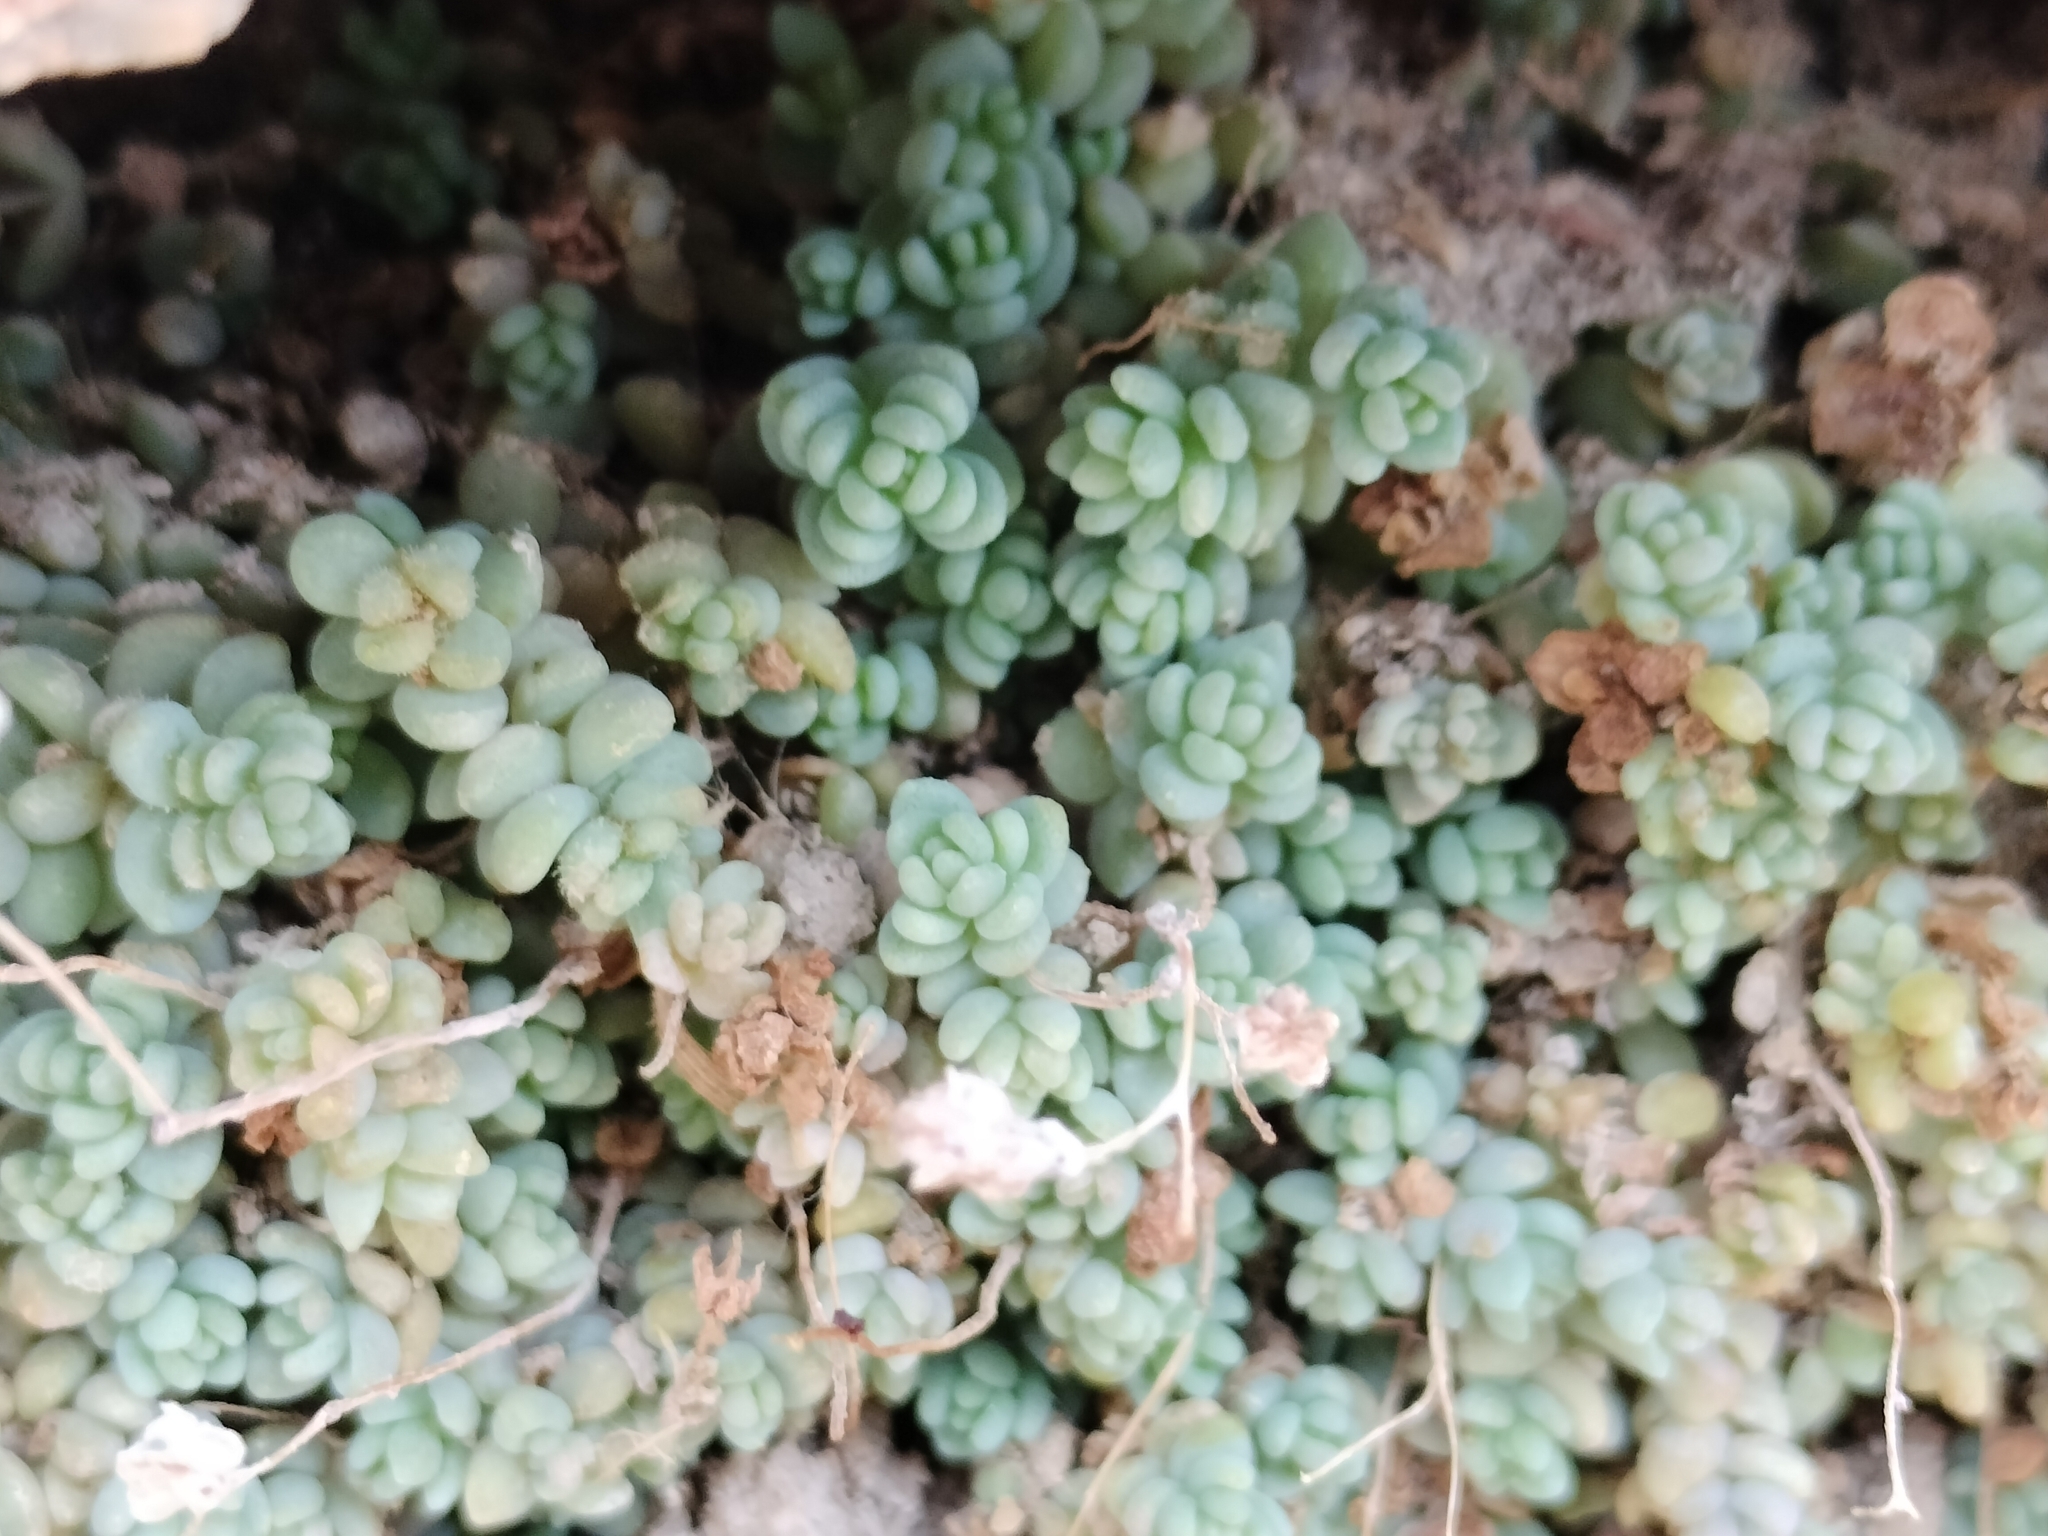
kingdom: Plantae
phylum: Tracheophyta
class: Magnoliopsida
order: Saxifragales
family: Crassulaceae
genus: Sedum
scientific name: Sedum dasyphyllum
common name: Thick-leaf stonecrop
